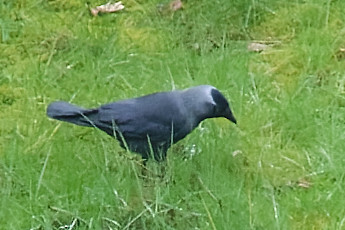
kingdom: Animalia
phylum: Chordata
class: Aves
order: Passeriformes
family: Corvidae
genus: Coloeus
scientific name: Coloeus monedula
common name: Western jackdaw
